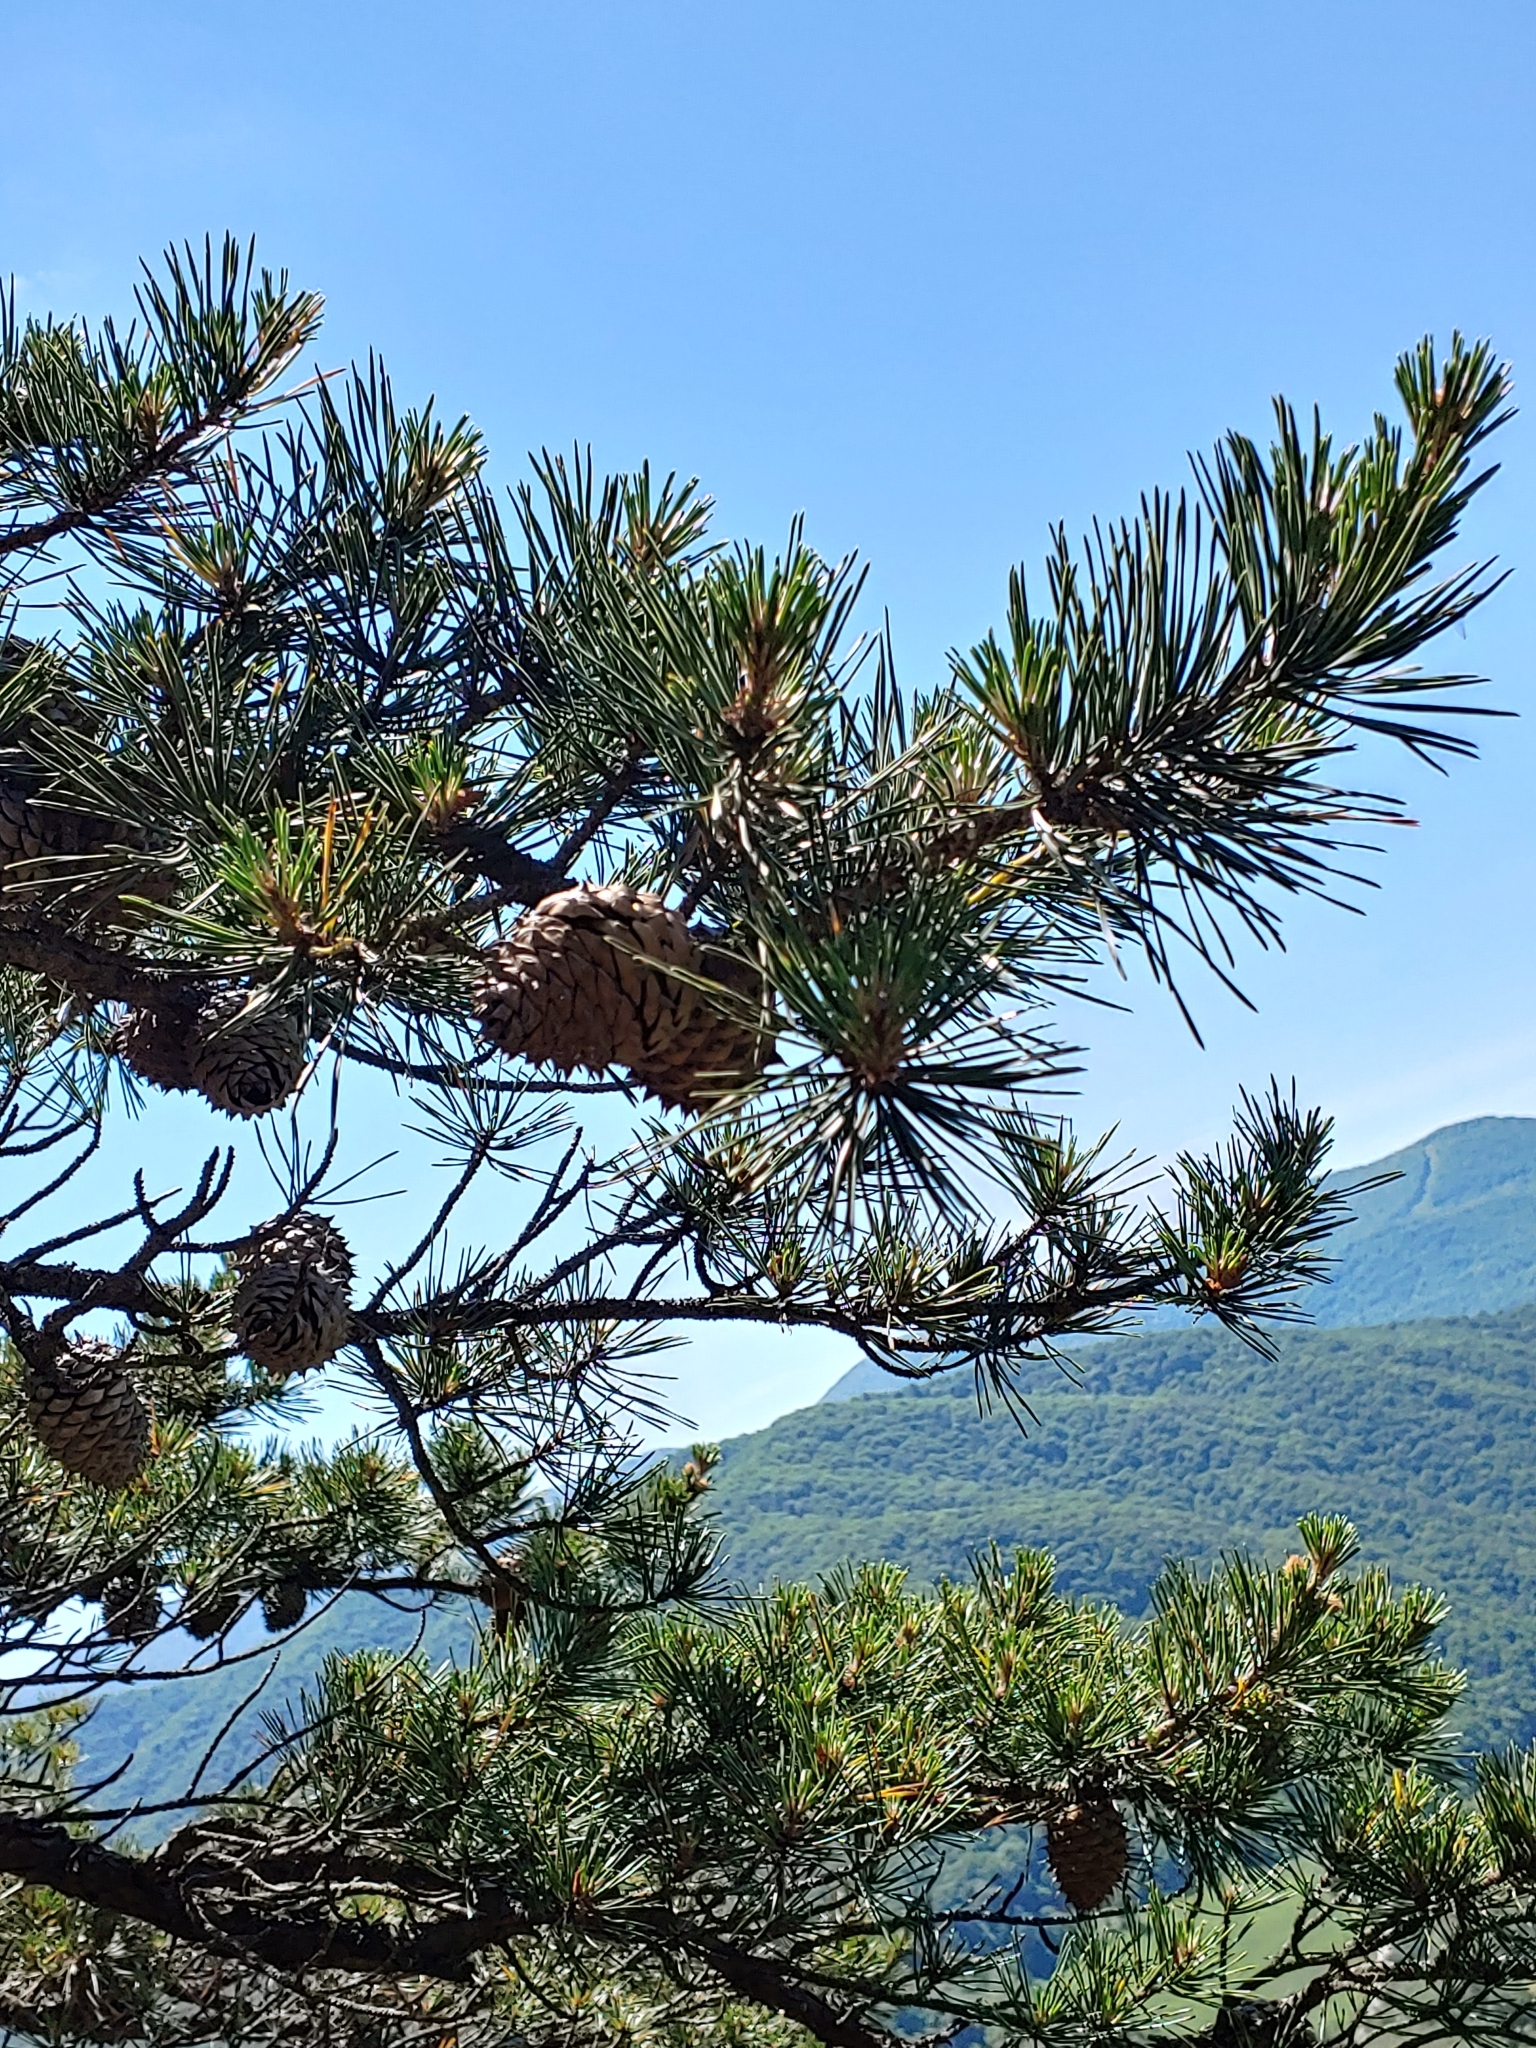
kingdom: Plantae
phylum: Tracheophyta
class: Pinopsida
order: Pinales
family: Pinaceae
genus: Pinus
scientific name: Pinus pungens
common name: Hickory pine
